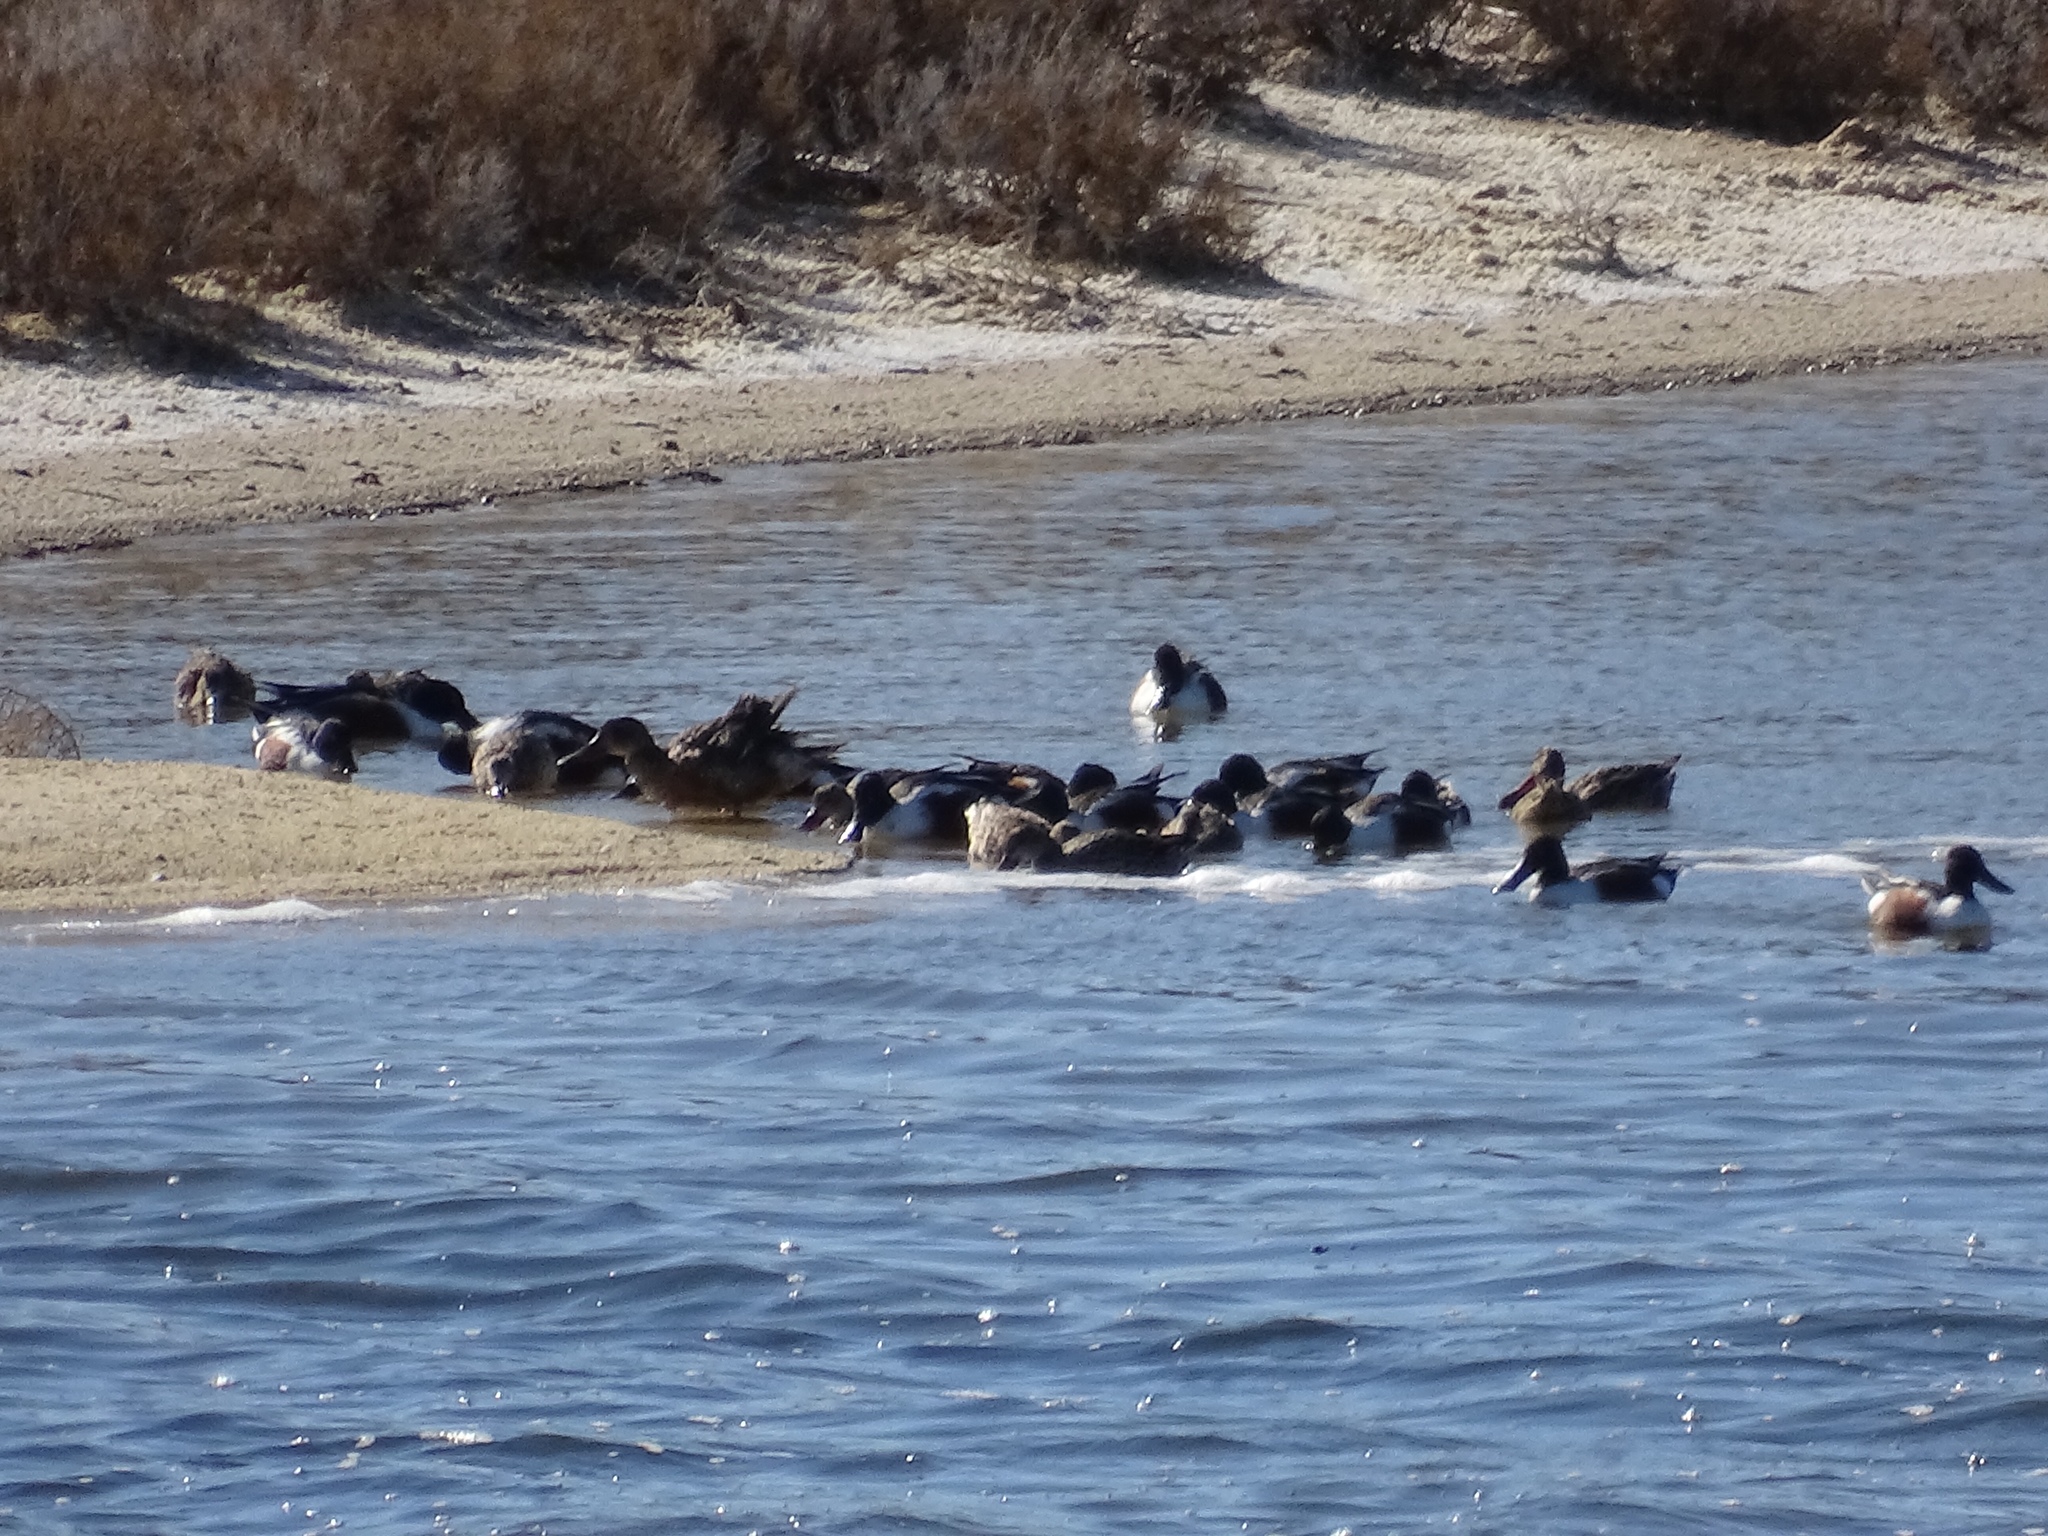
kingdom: Animalia
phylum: Chordata
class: Aves
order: Anseriformes
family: Anatidae
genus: Spatula
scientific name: Spatula clypeata
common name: Northern shoveler
